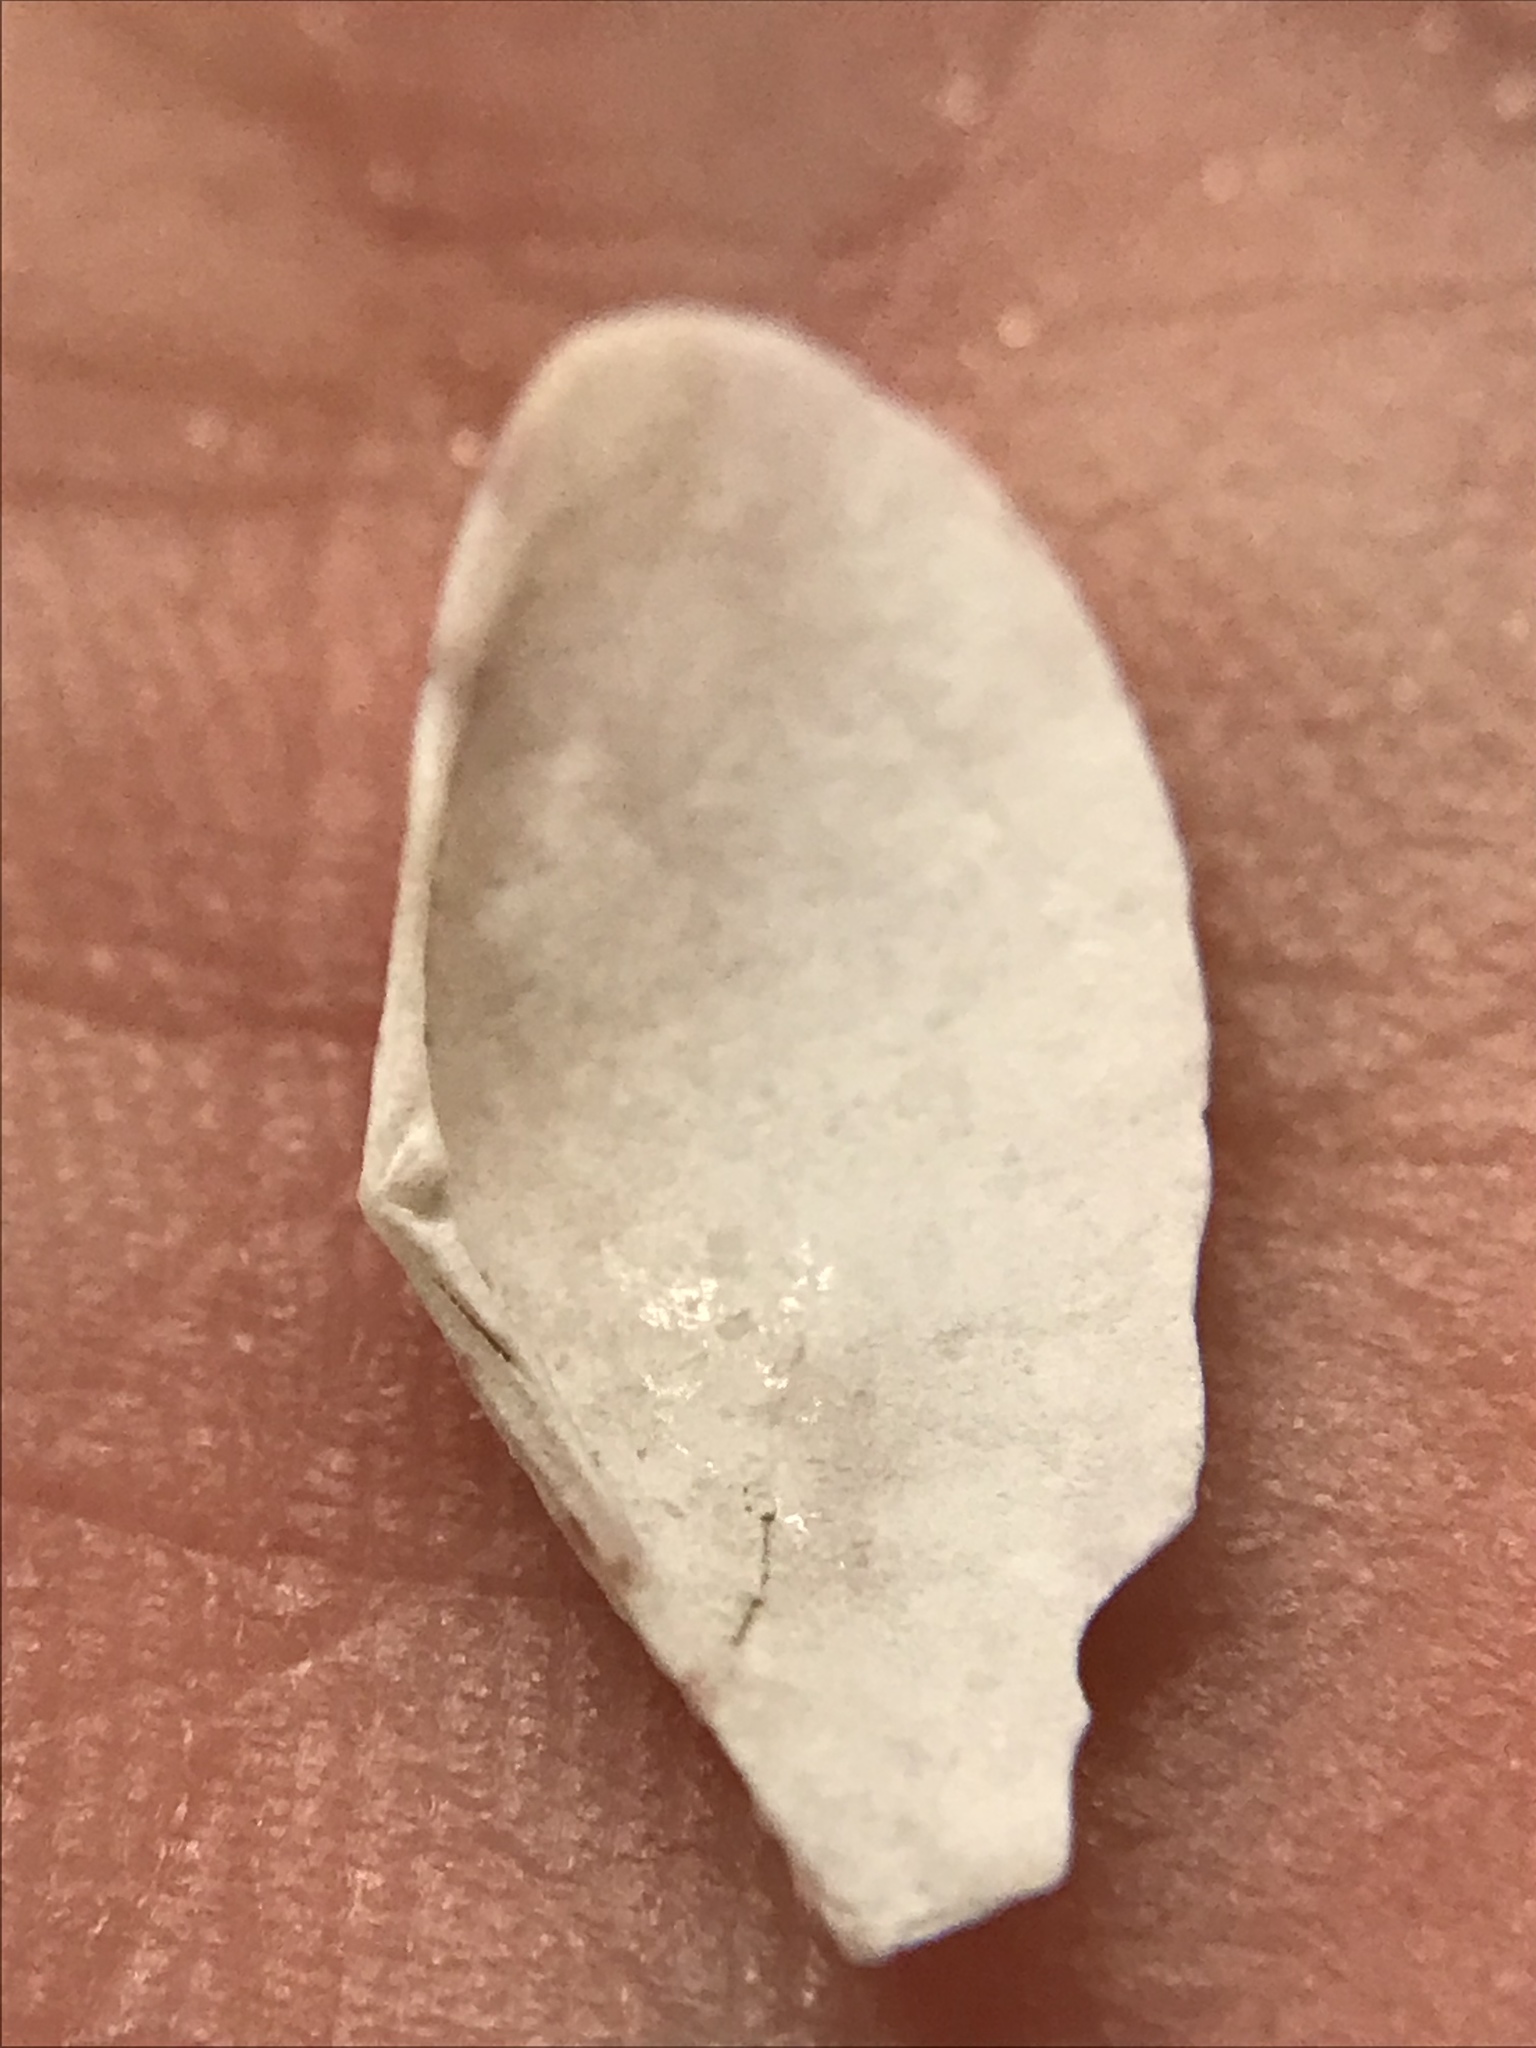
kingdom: Animalia
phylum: Mollusca
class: Bivalvia
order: Cardiida
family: Tellinidae
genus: Tellinella
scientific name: Tellinella mexicana
